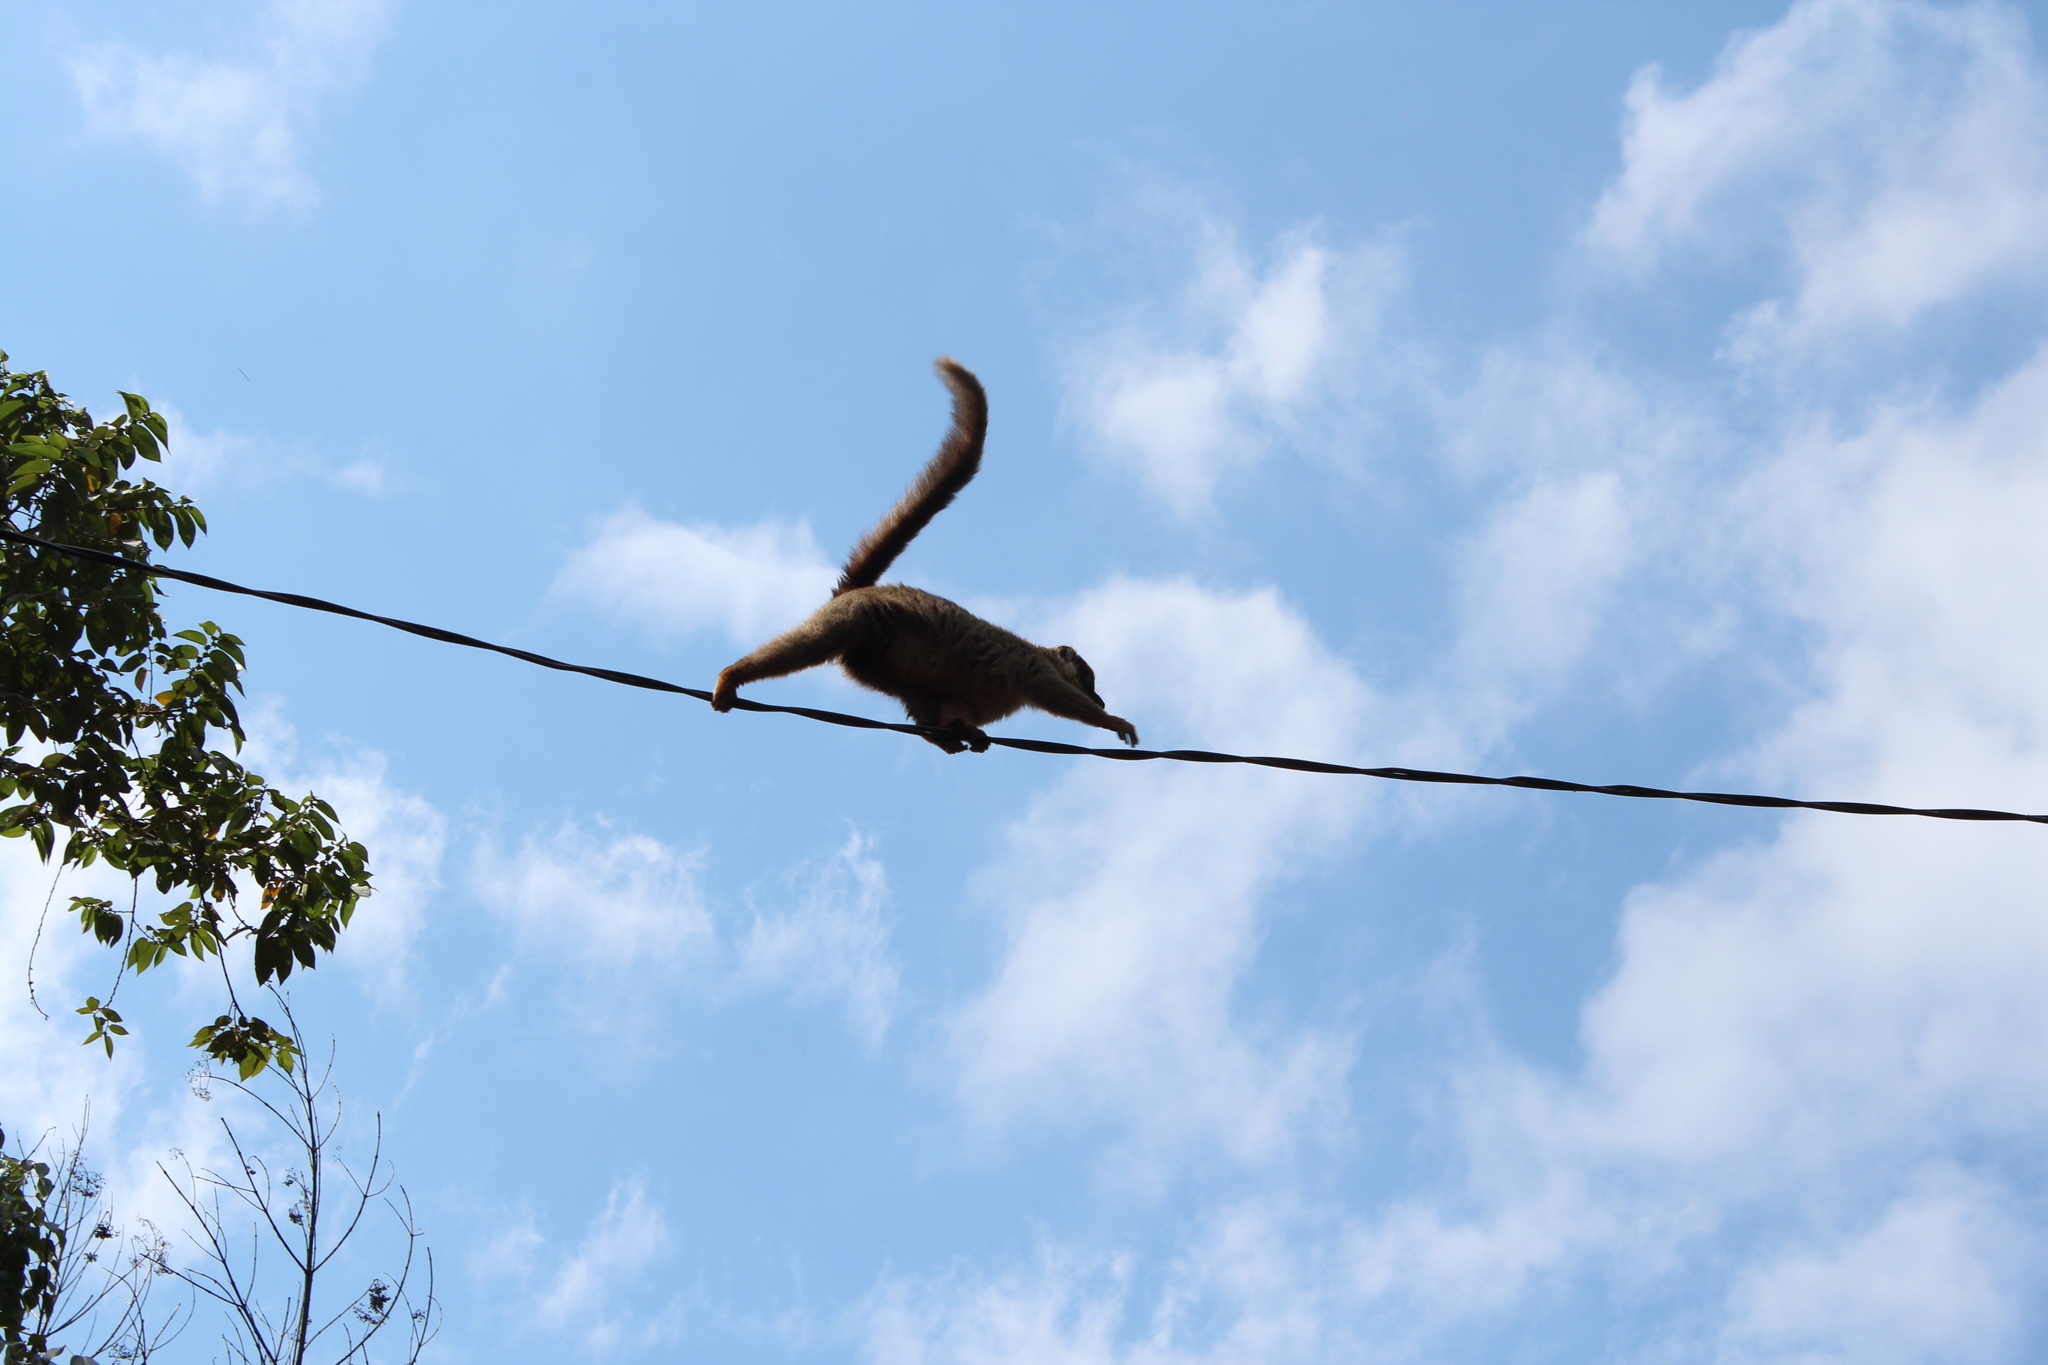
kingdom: Animalia
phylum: Chordata
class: Mammalia
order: Primates
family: Lemuridae
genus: Eulemur
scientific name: Eulemur fulvus
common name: Brown lemur
